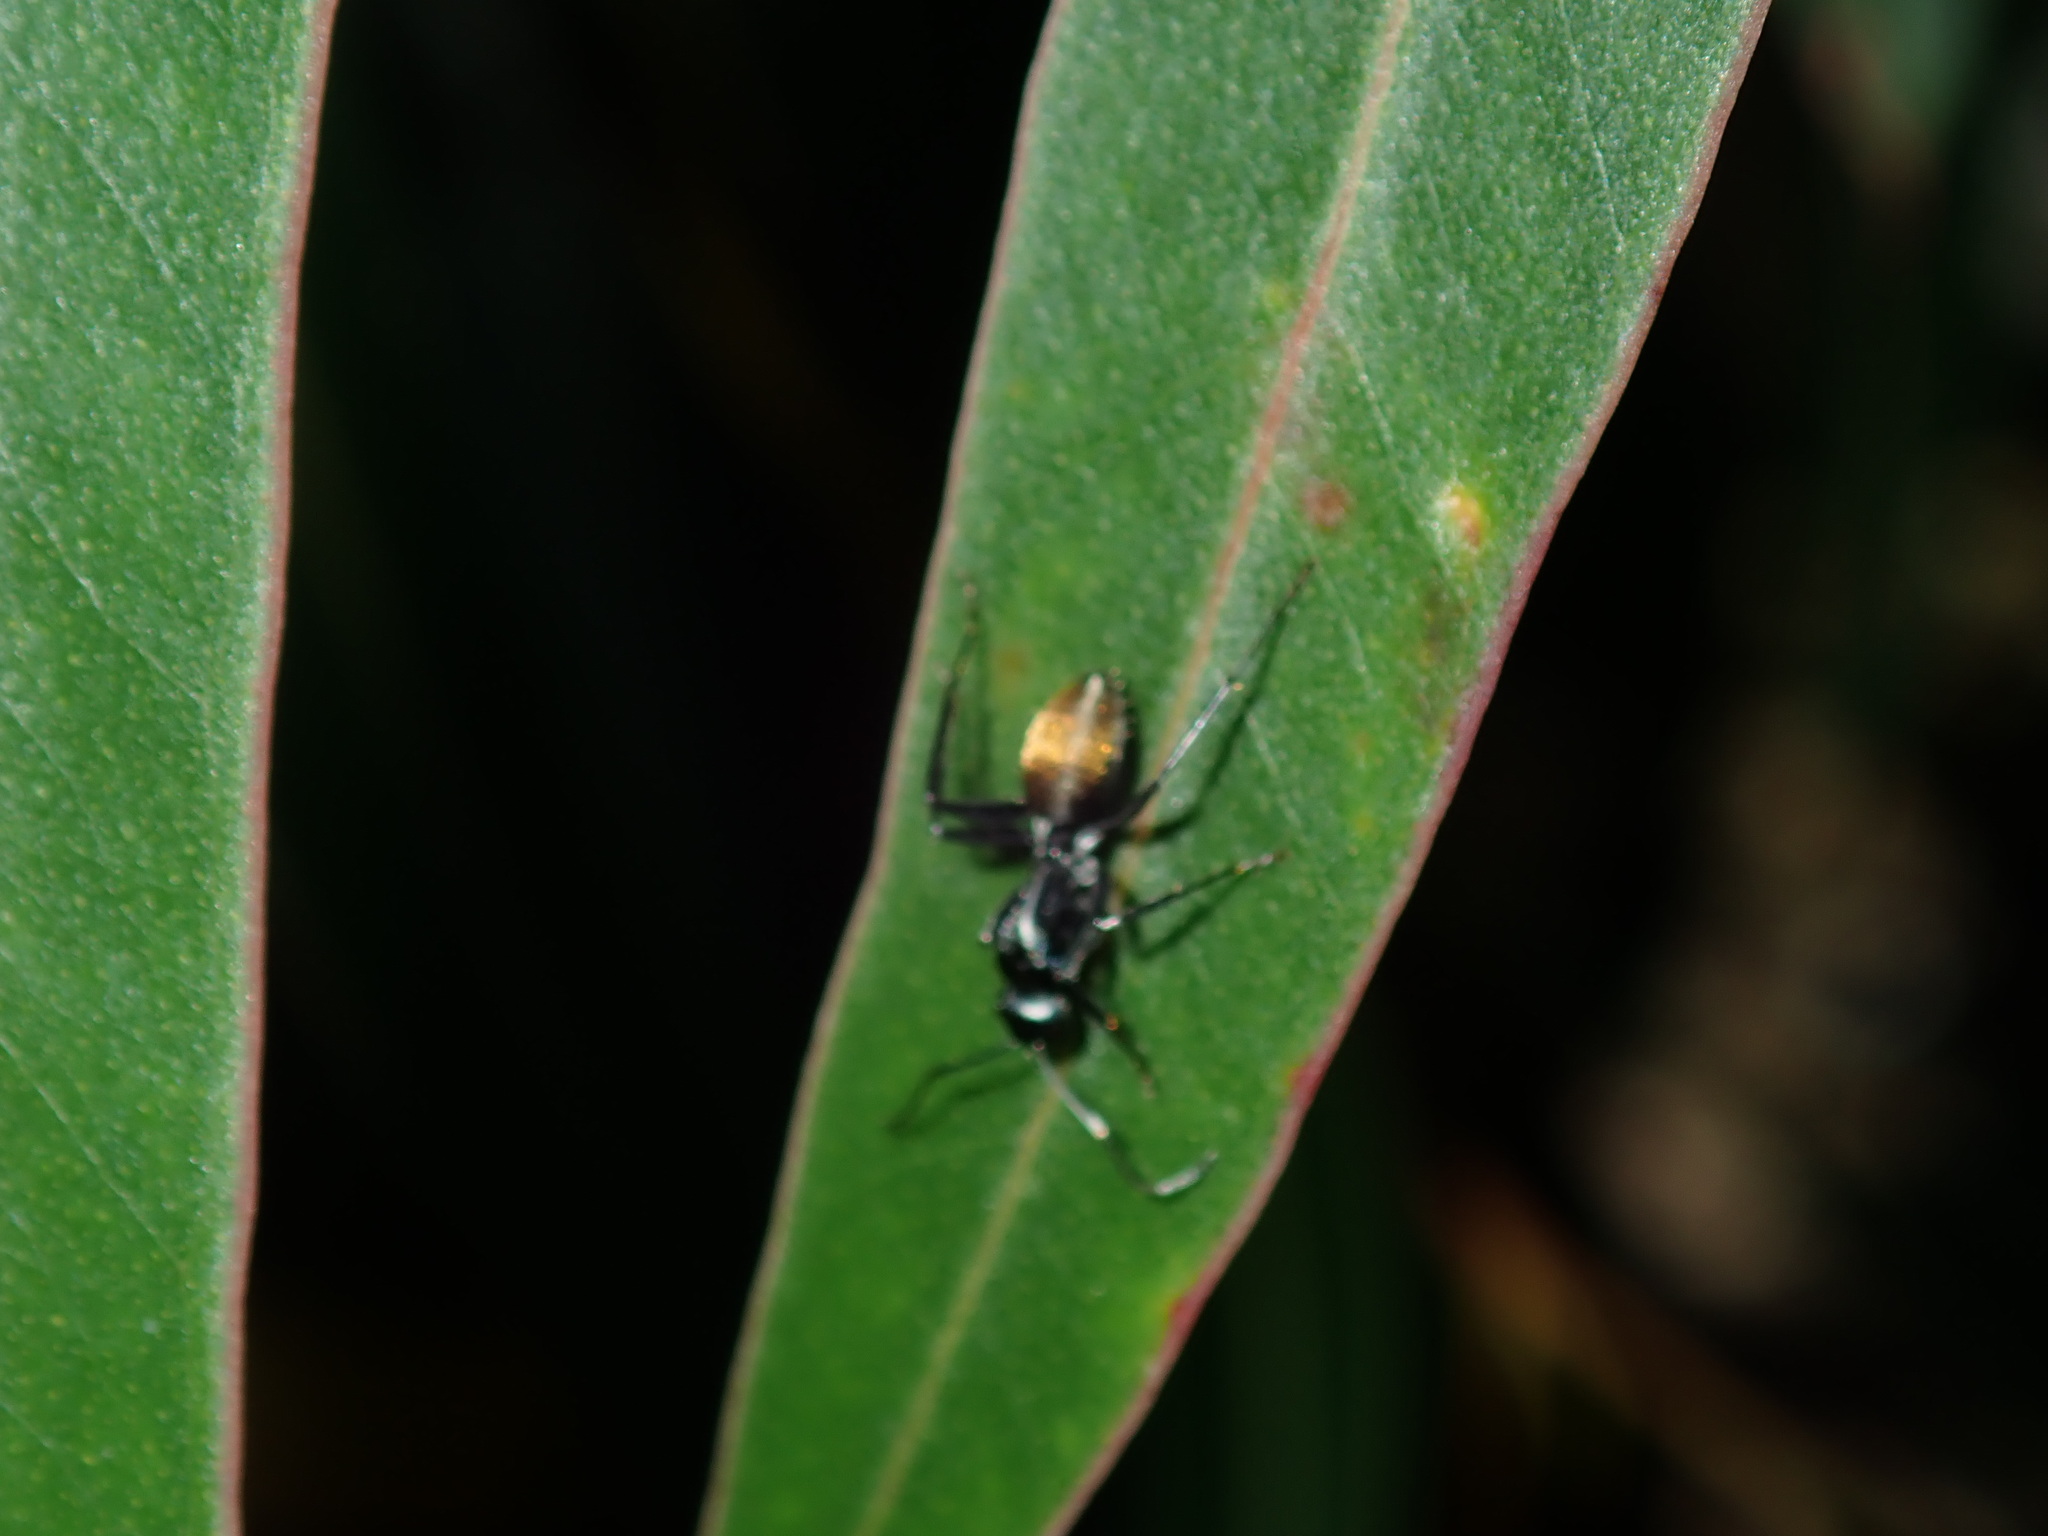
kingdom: Animalia
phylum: Arthropoda
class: Insecta
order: Hymenoptera
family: Formicidae
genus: Camponotus
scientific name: Camponotus aeneopilosus
